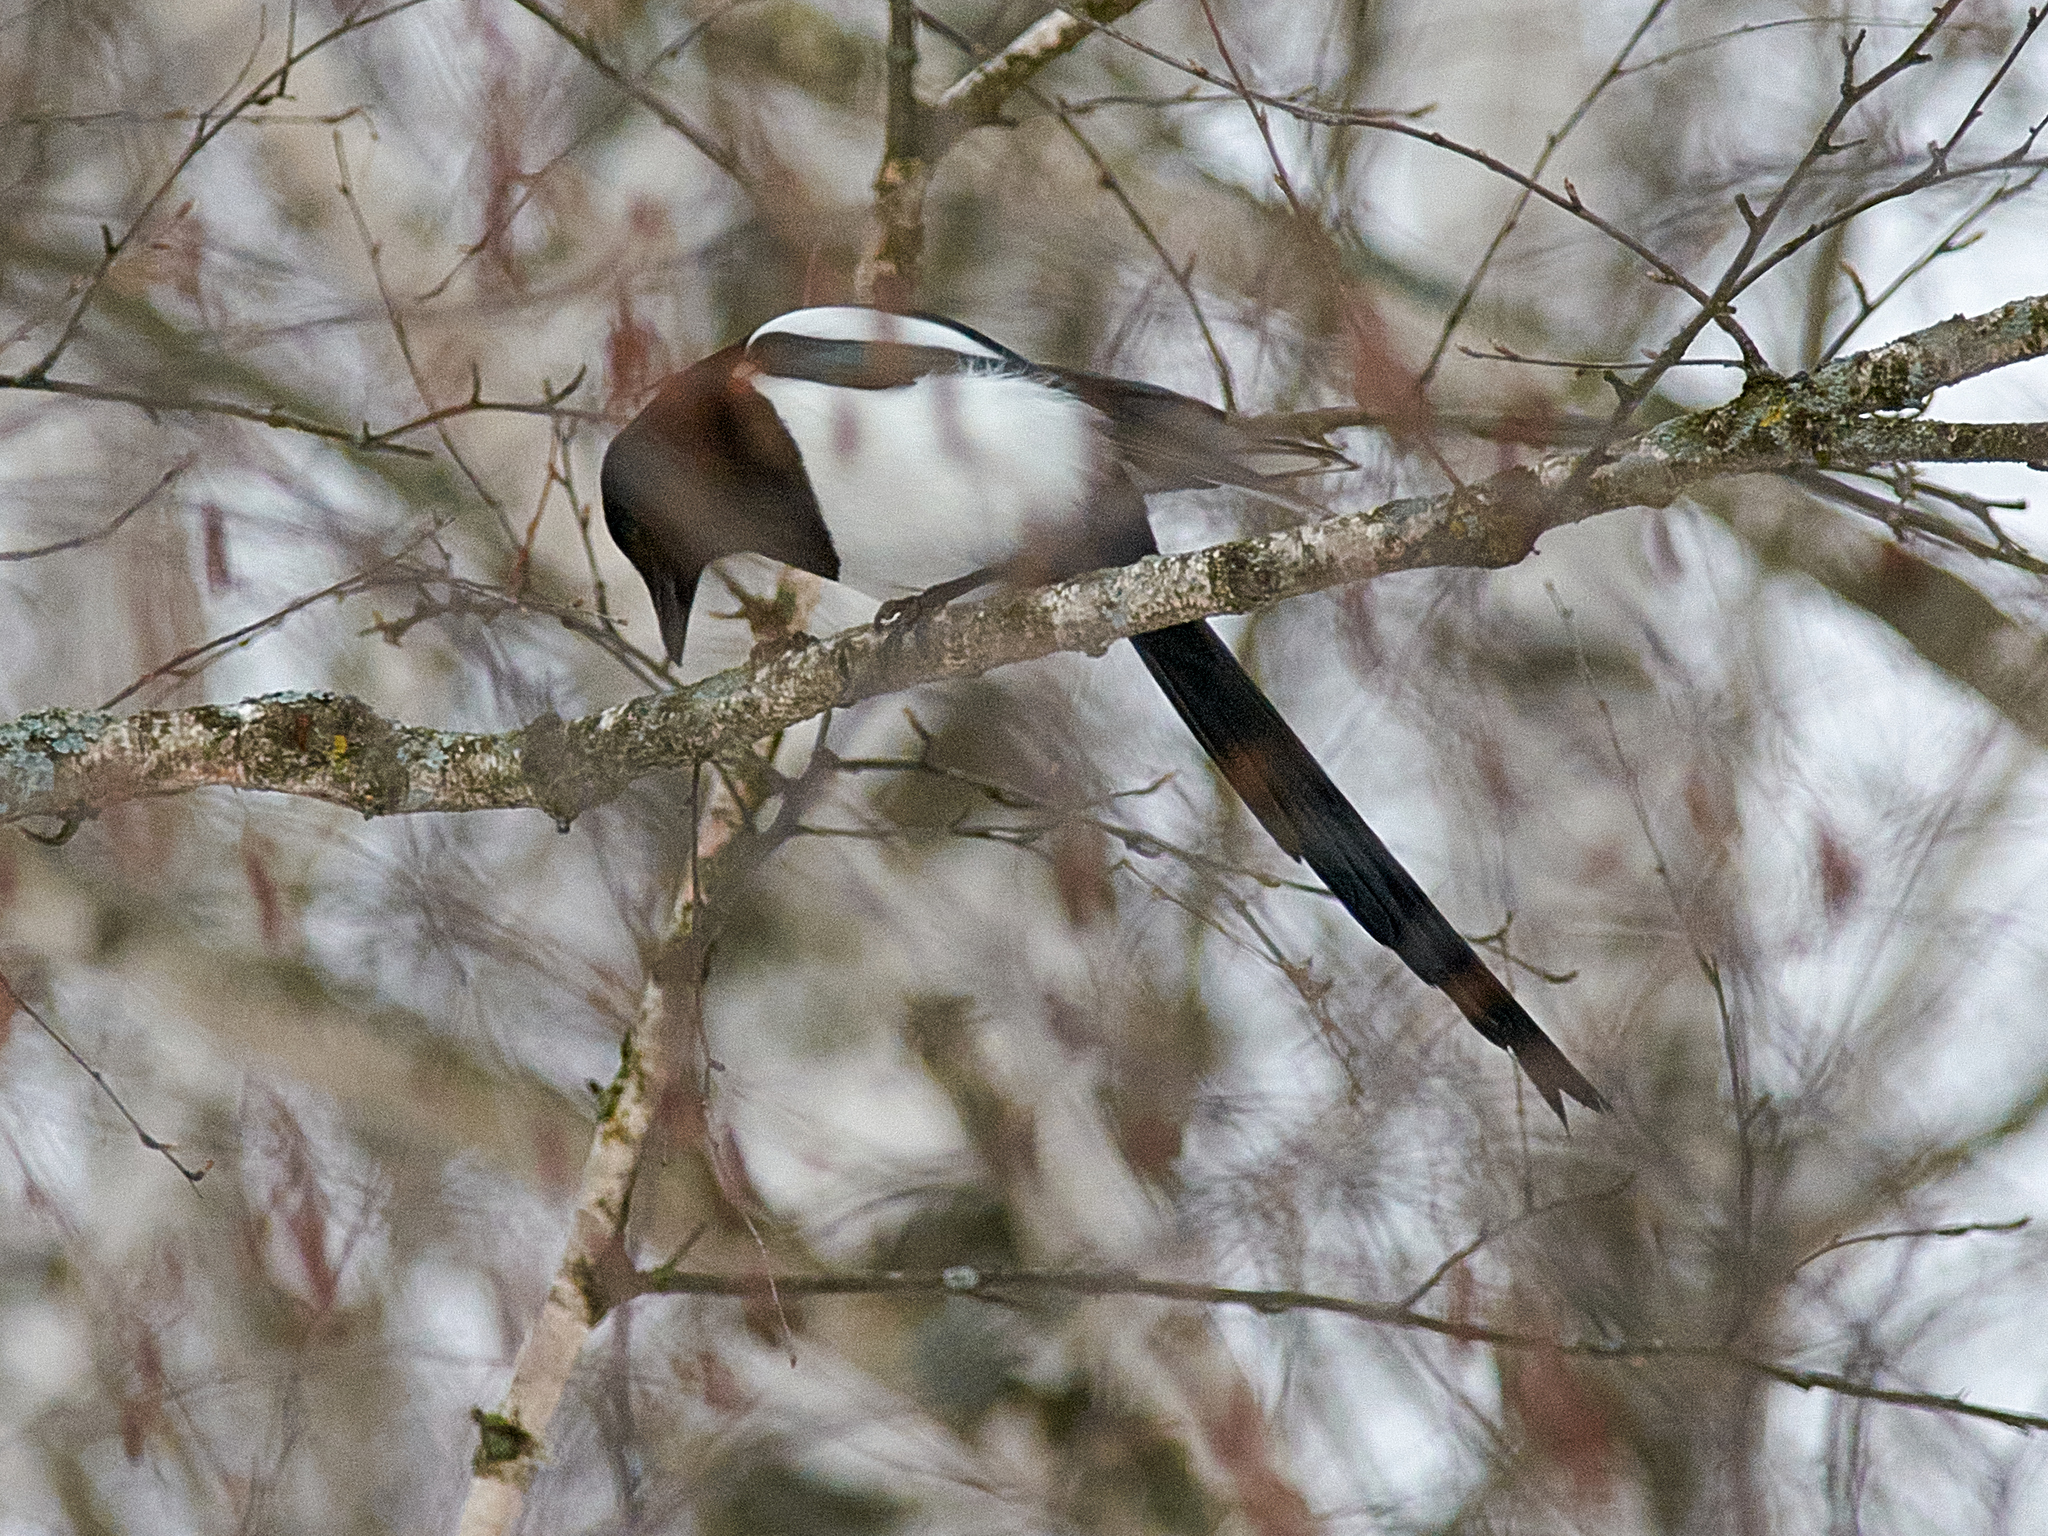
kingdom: Animalia
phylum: Chordata
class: Aves
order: Passeriformes
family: Corvidae
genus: Pica
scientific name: Pica pica
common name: Eurasian magpie
